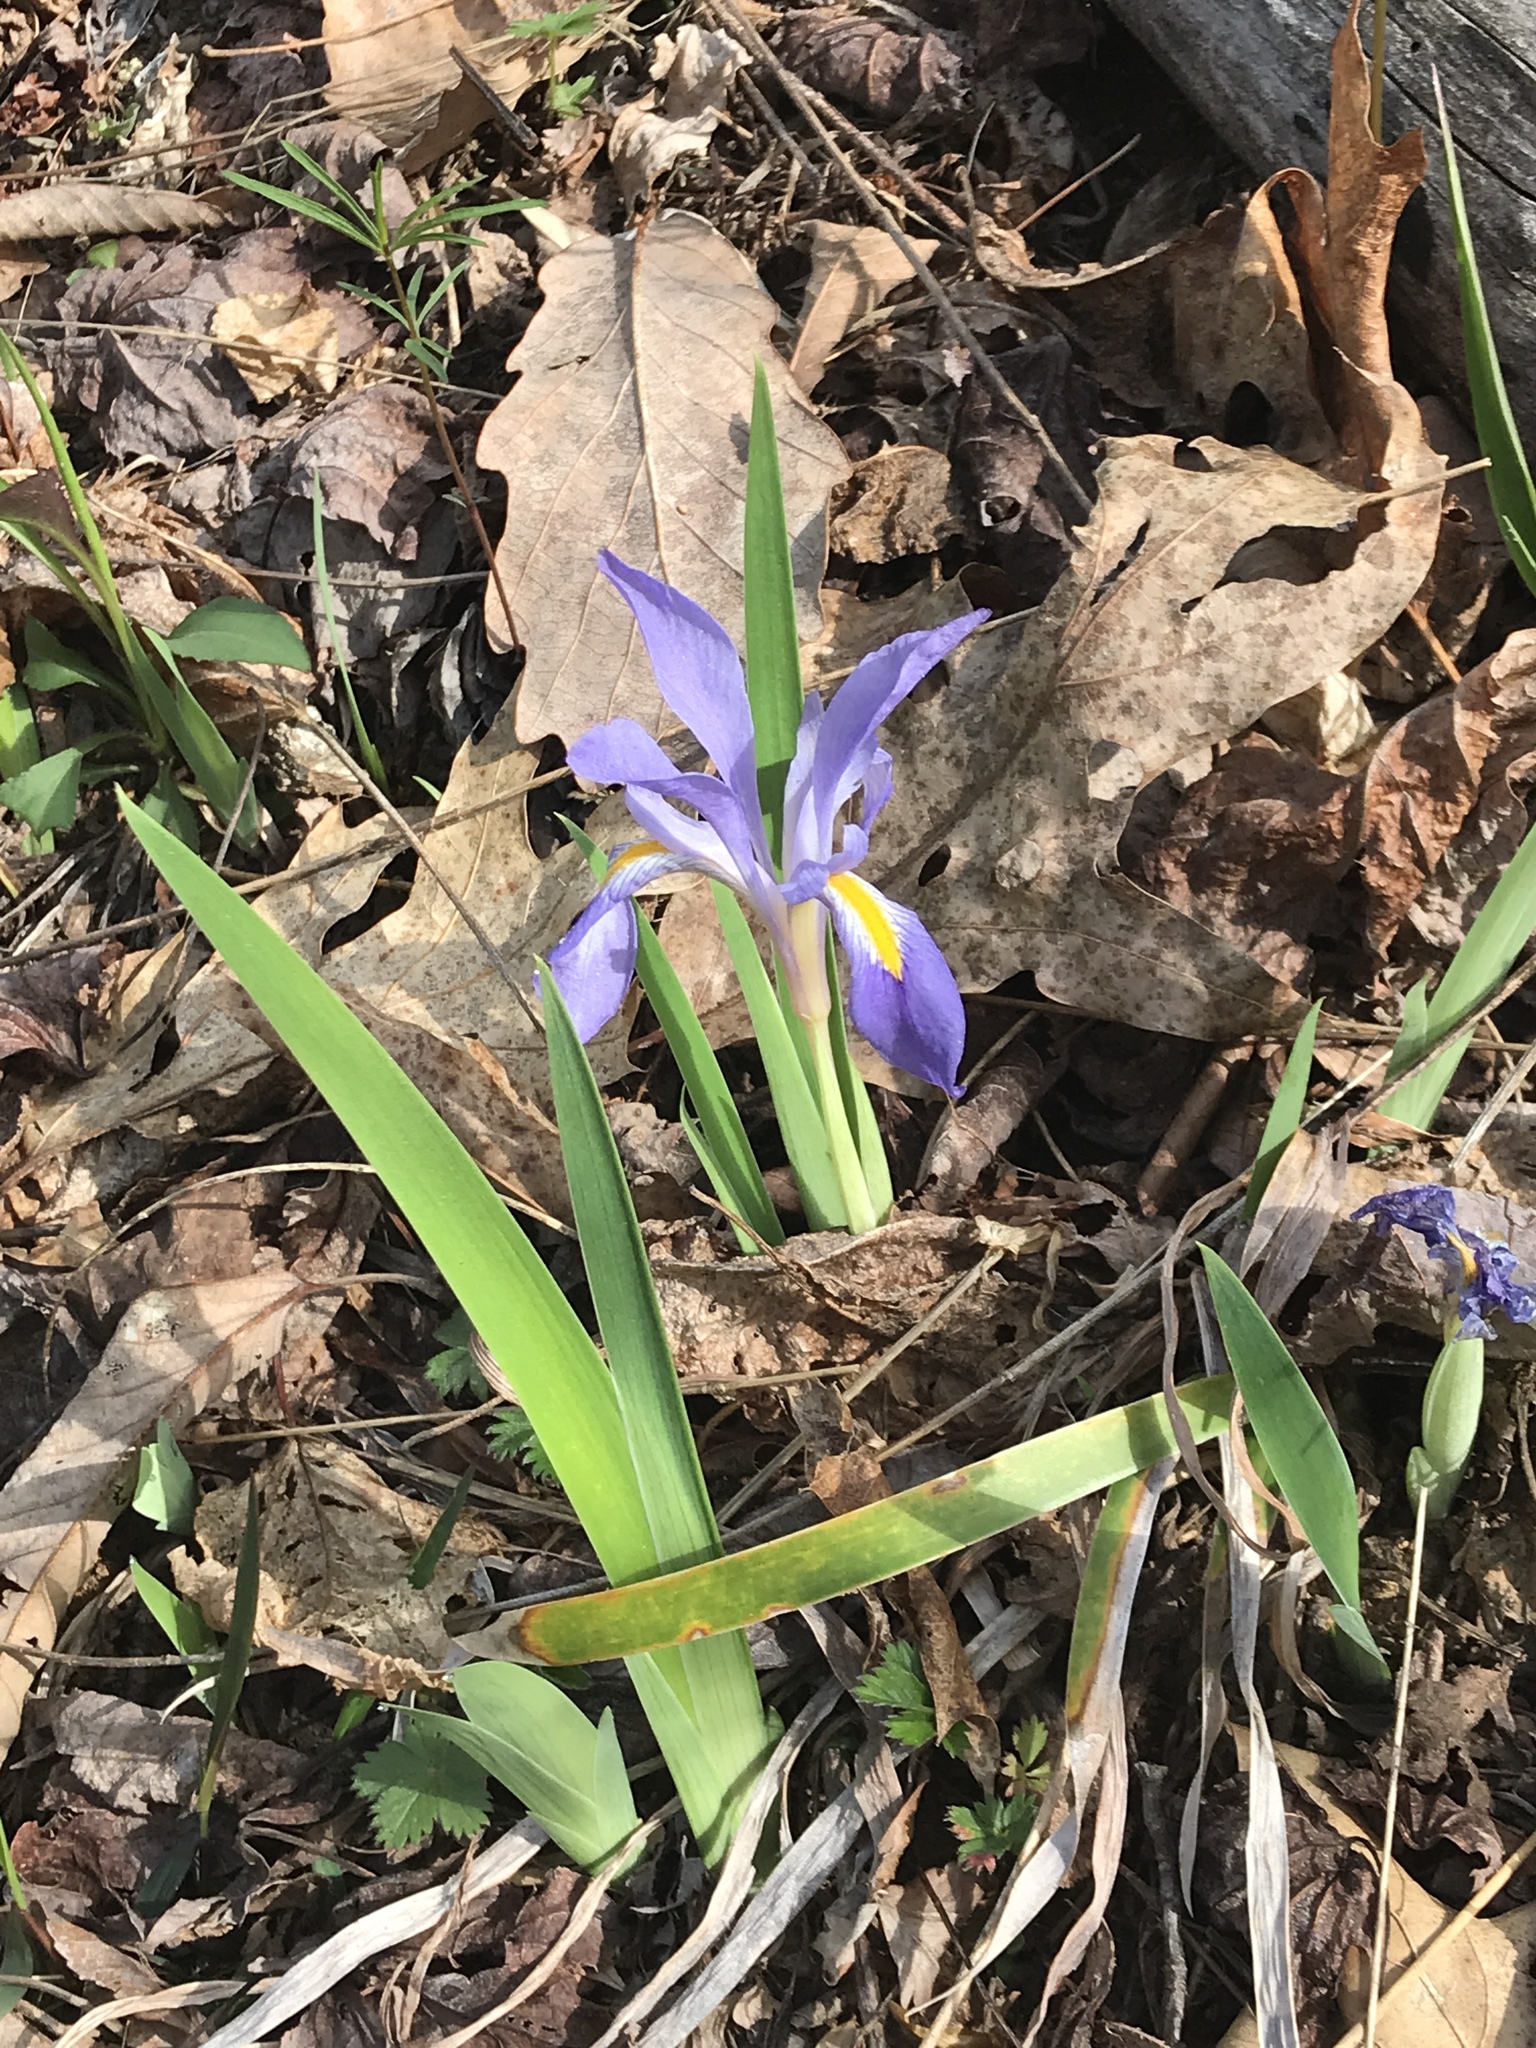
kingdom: Plantae
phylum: Tracheophyta
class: Liliopsida
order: Asparagales
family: Iridaceae
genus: Iris
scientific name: Iris verna
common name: Dwarf iris
